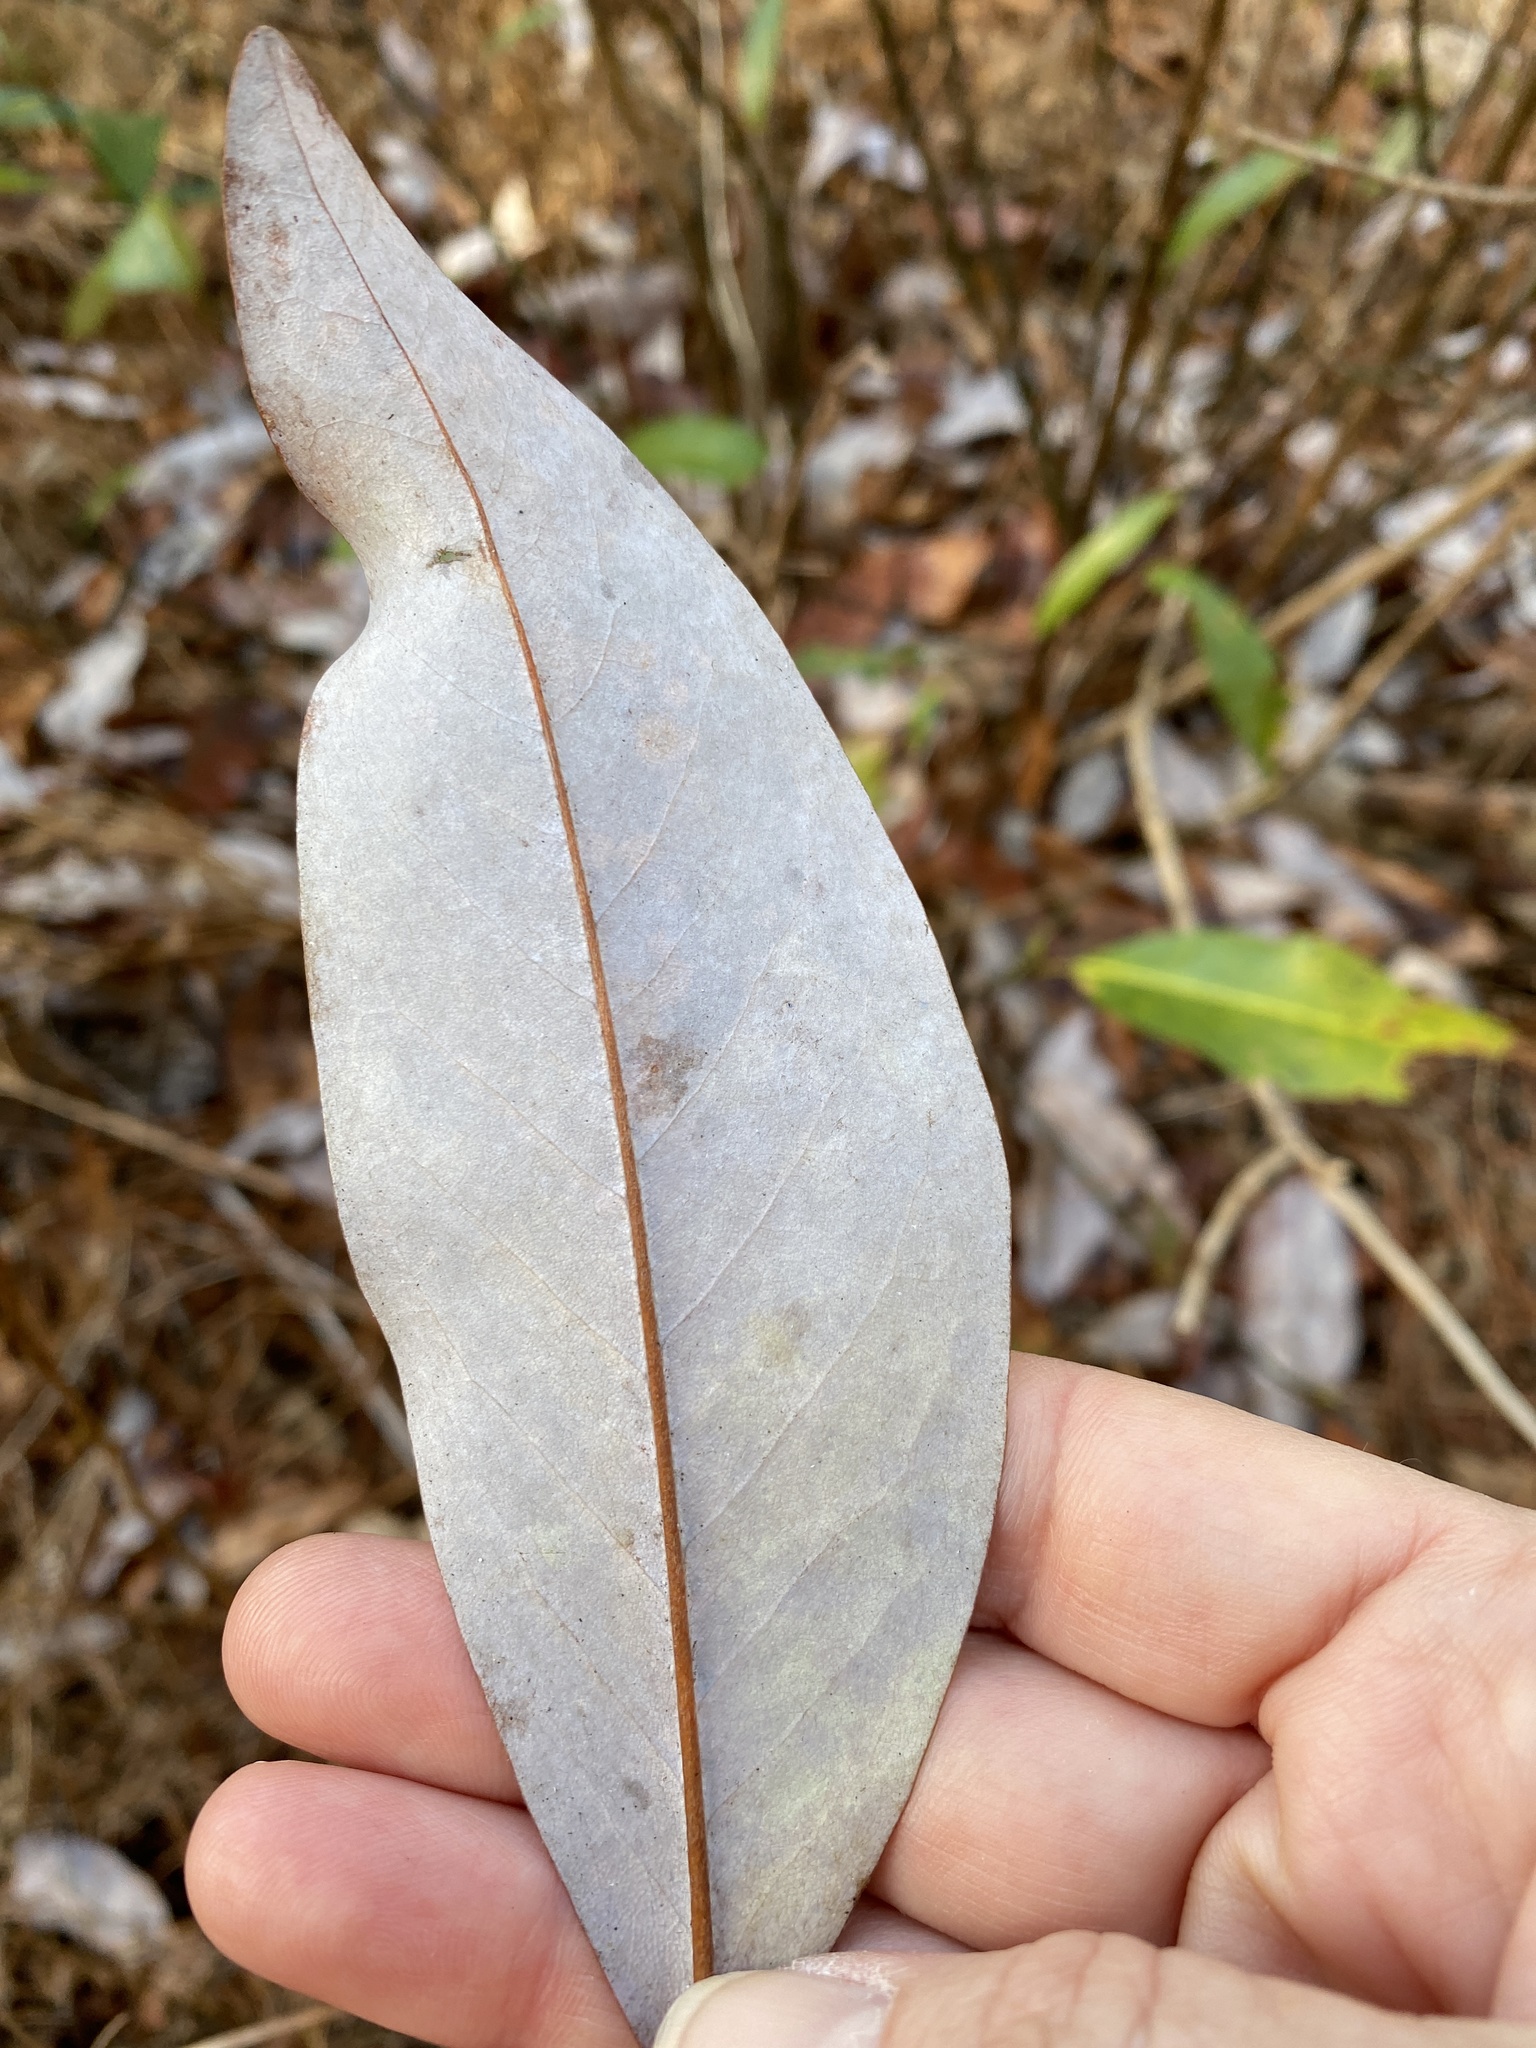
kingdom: Plantae
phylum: Tracheophyta
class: Magnoliopsida
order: Magnoliales
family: Magnoliaceae
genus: Magnolia
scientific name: Magnolia virginiana
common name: Swamp bay
